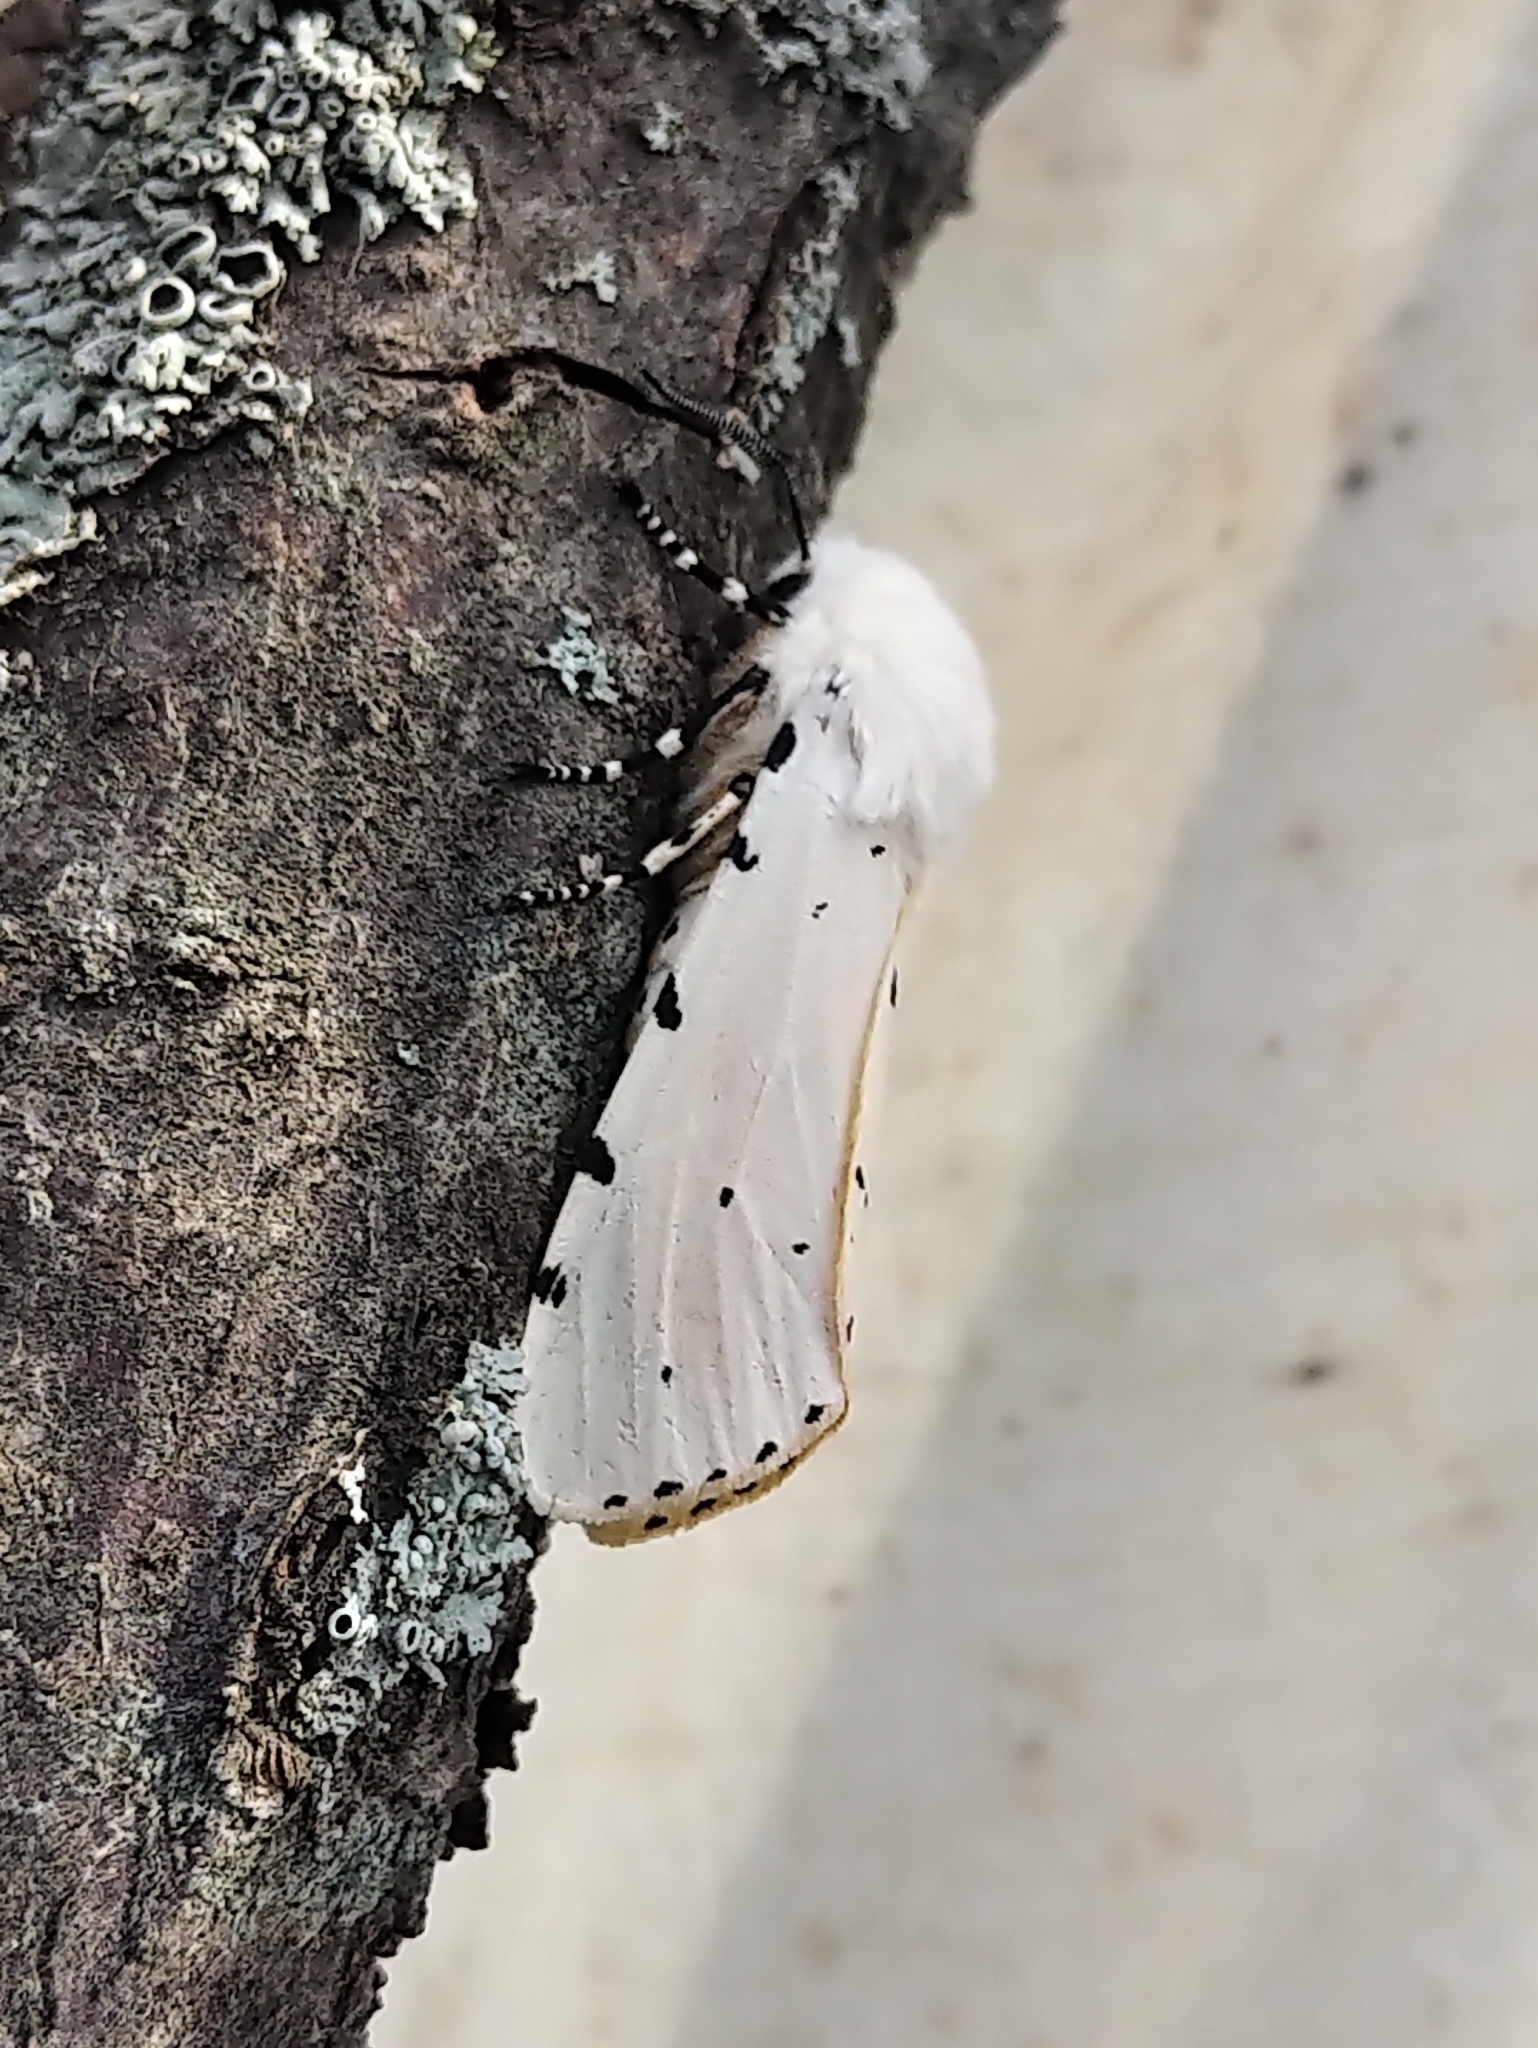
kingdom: Animalia
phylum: Arthropoda
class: Insecta
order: Lepidoptera
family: Erebidae
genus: Estigmene
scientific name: Estigmene acrea
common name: Salt marsh moth
